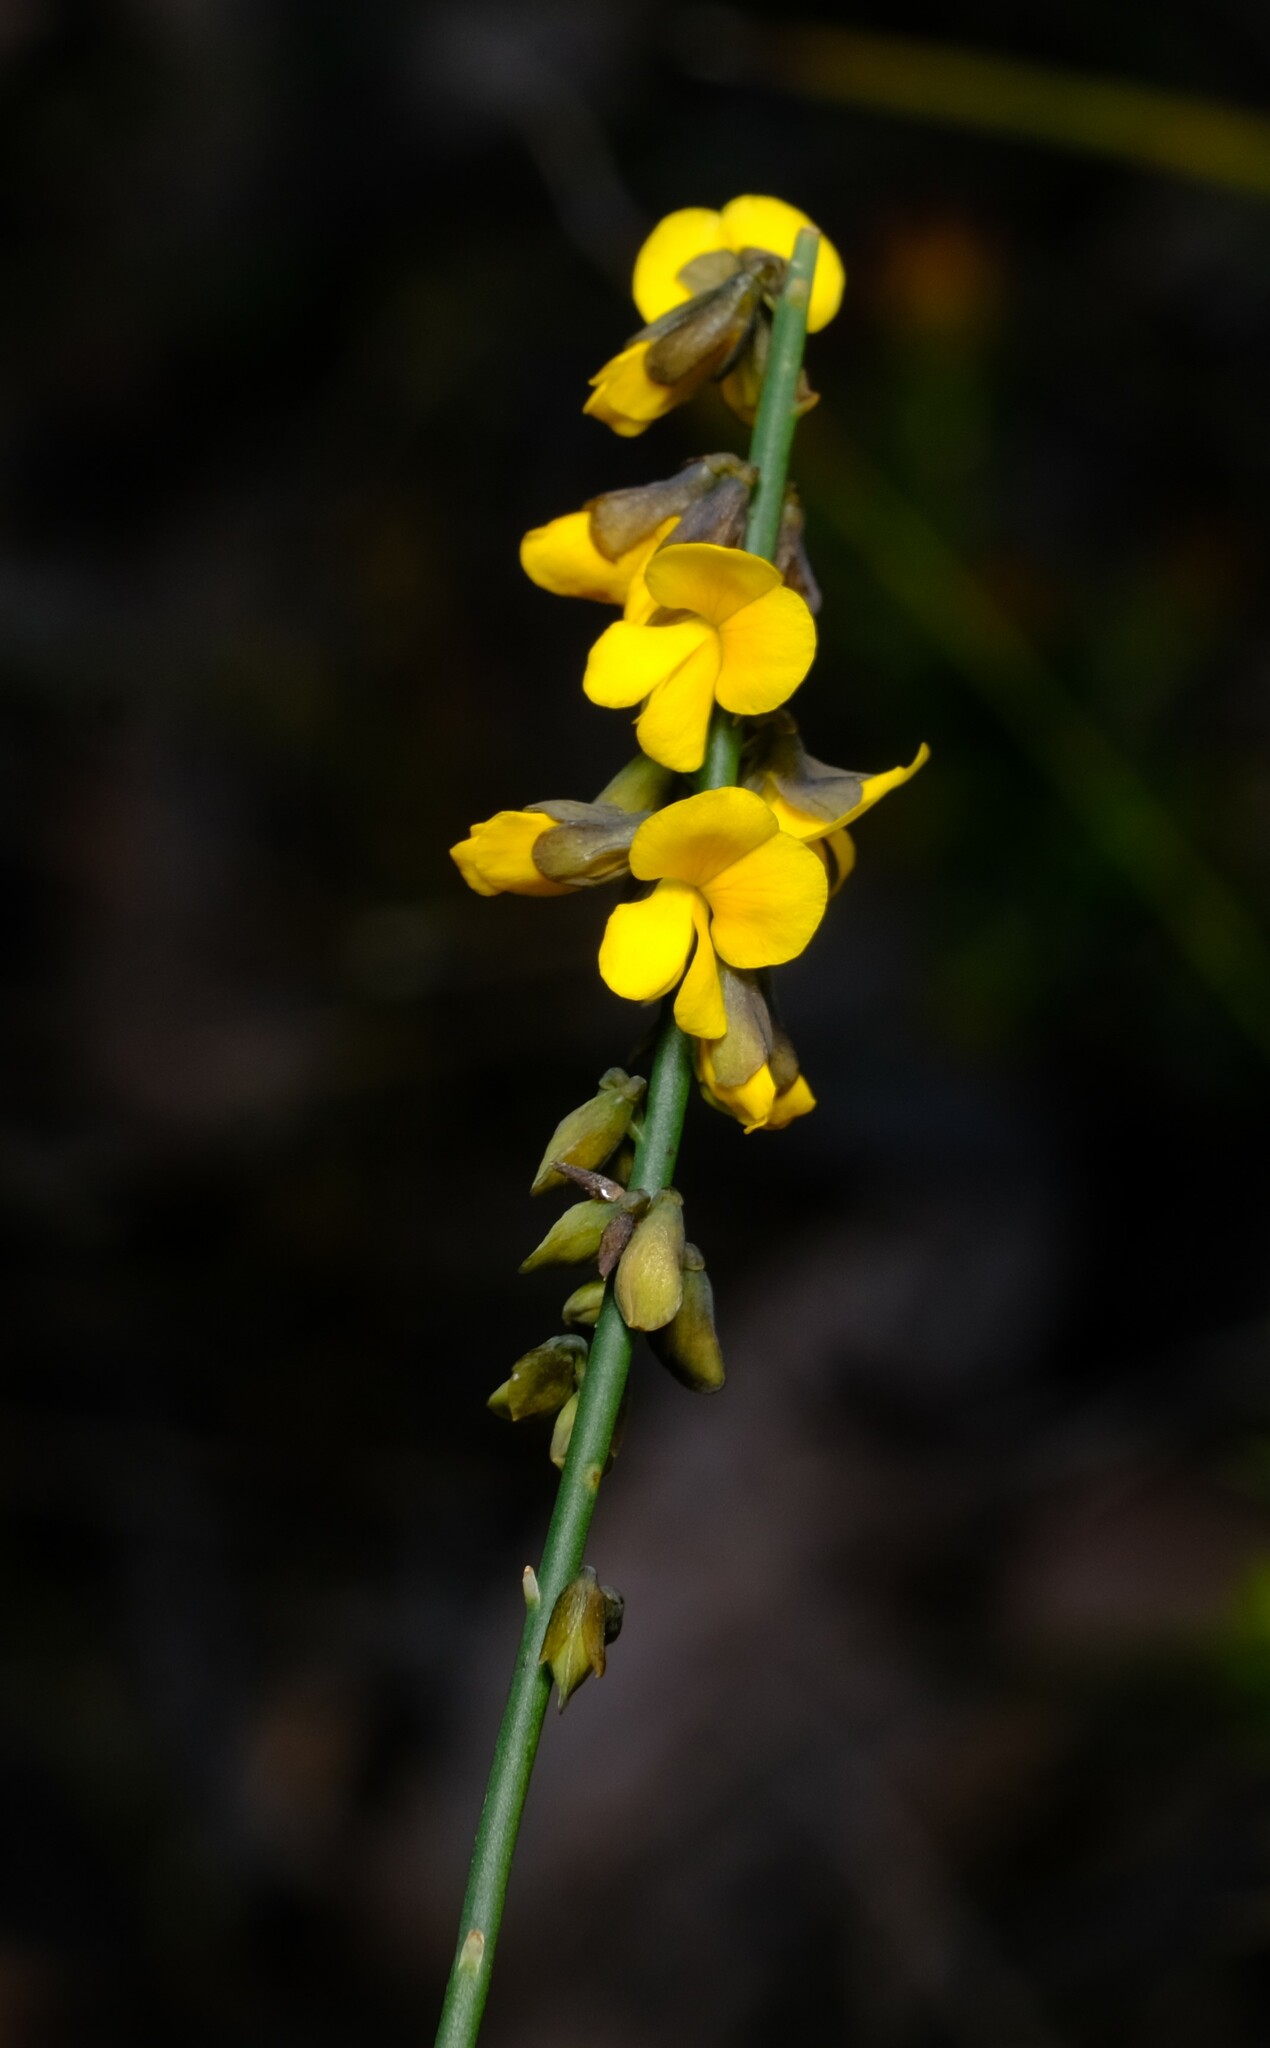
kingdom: Plantae
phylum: Tracheophyta
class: Magnoliopsida
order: Fabales
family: Fabaceae
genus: Sphaerolobium
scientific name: Sphaerolobium minus
